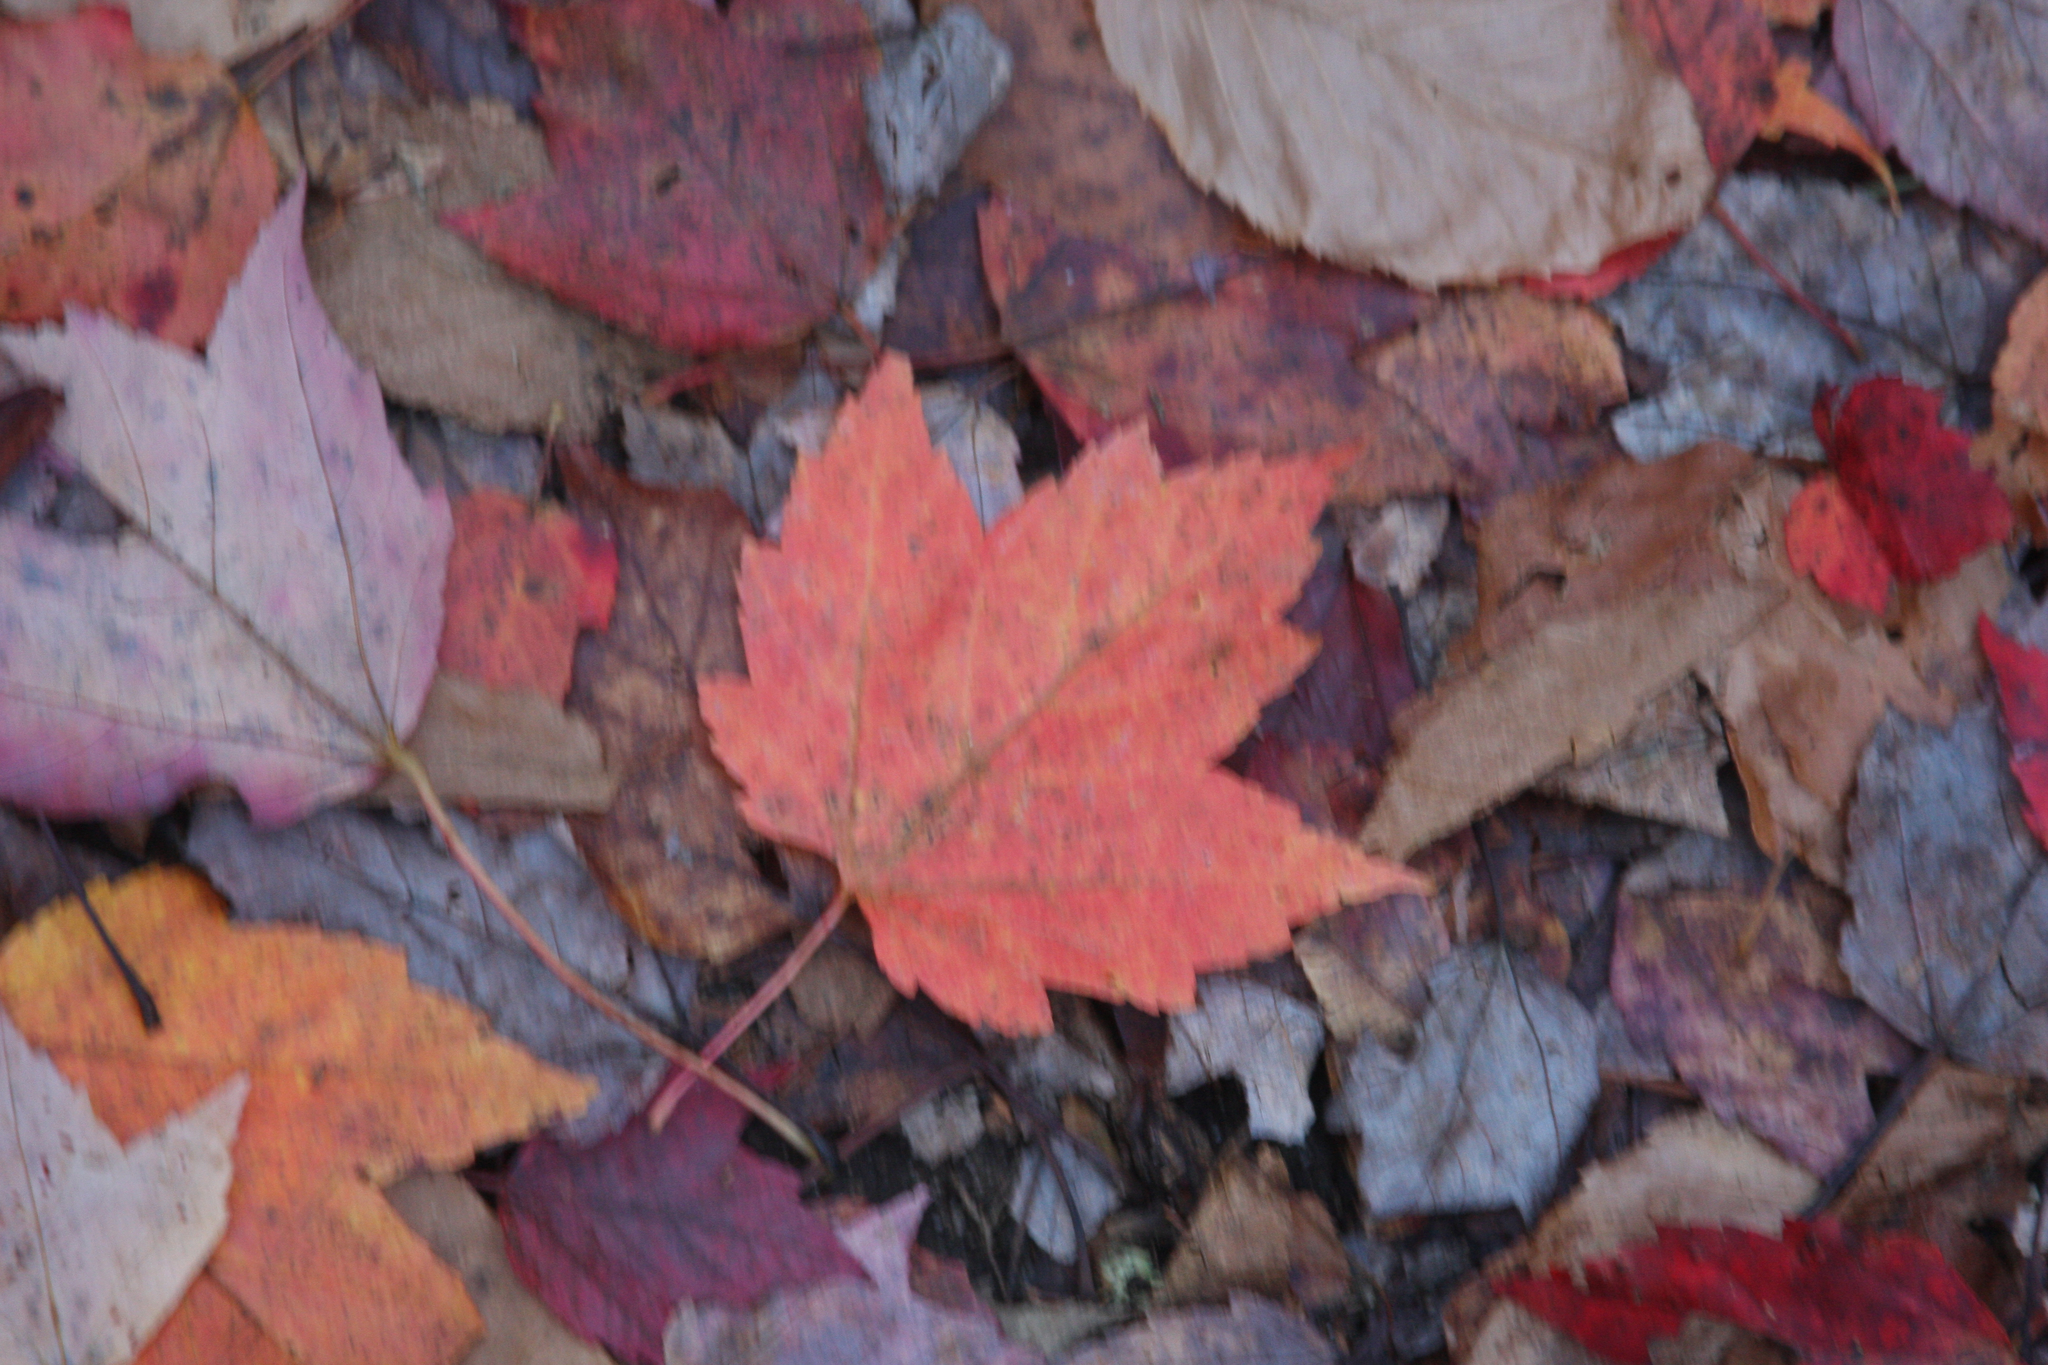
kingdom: Plantae
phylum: Tracheophyta
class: Magnoliopsida
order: Sapindales
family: Sapindaceae
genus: Acer
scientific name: Acer rubrum
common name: Red maple
